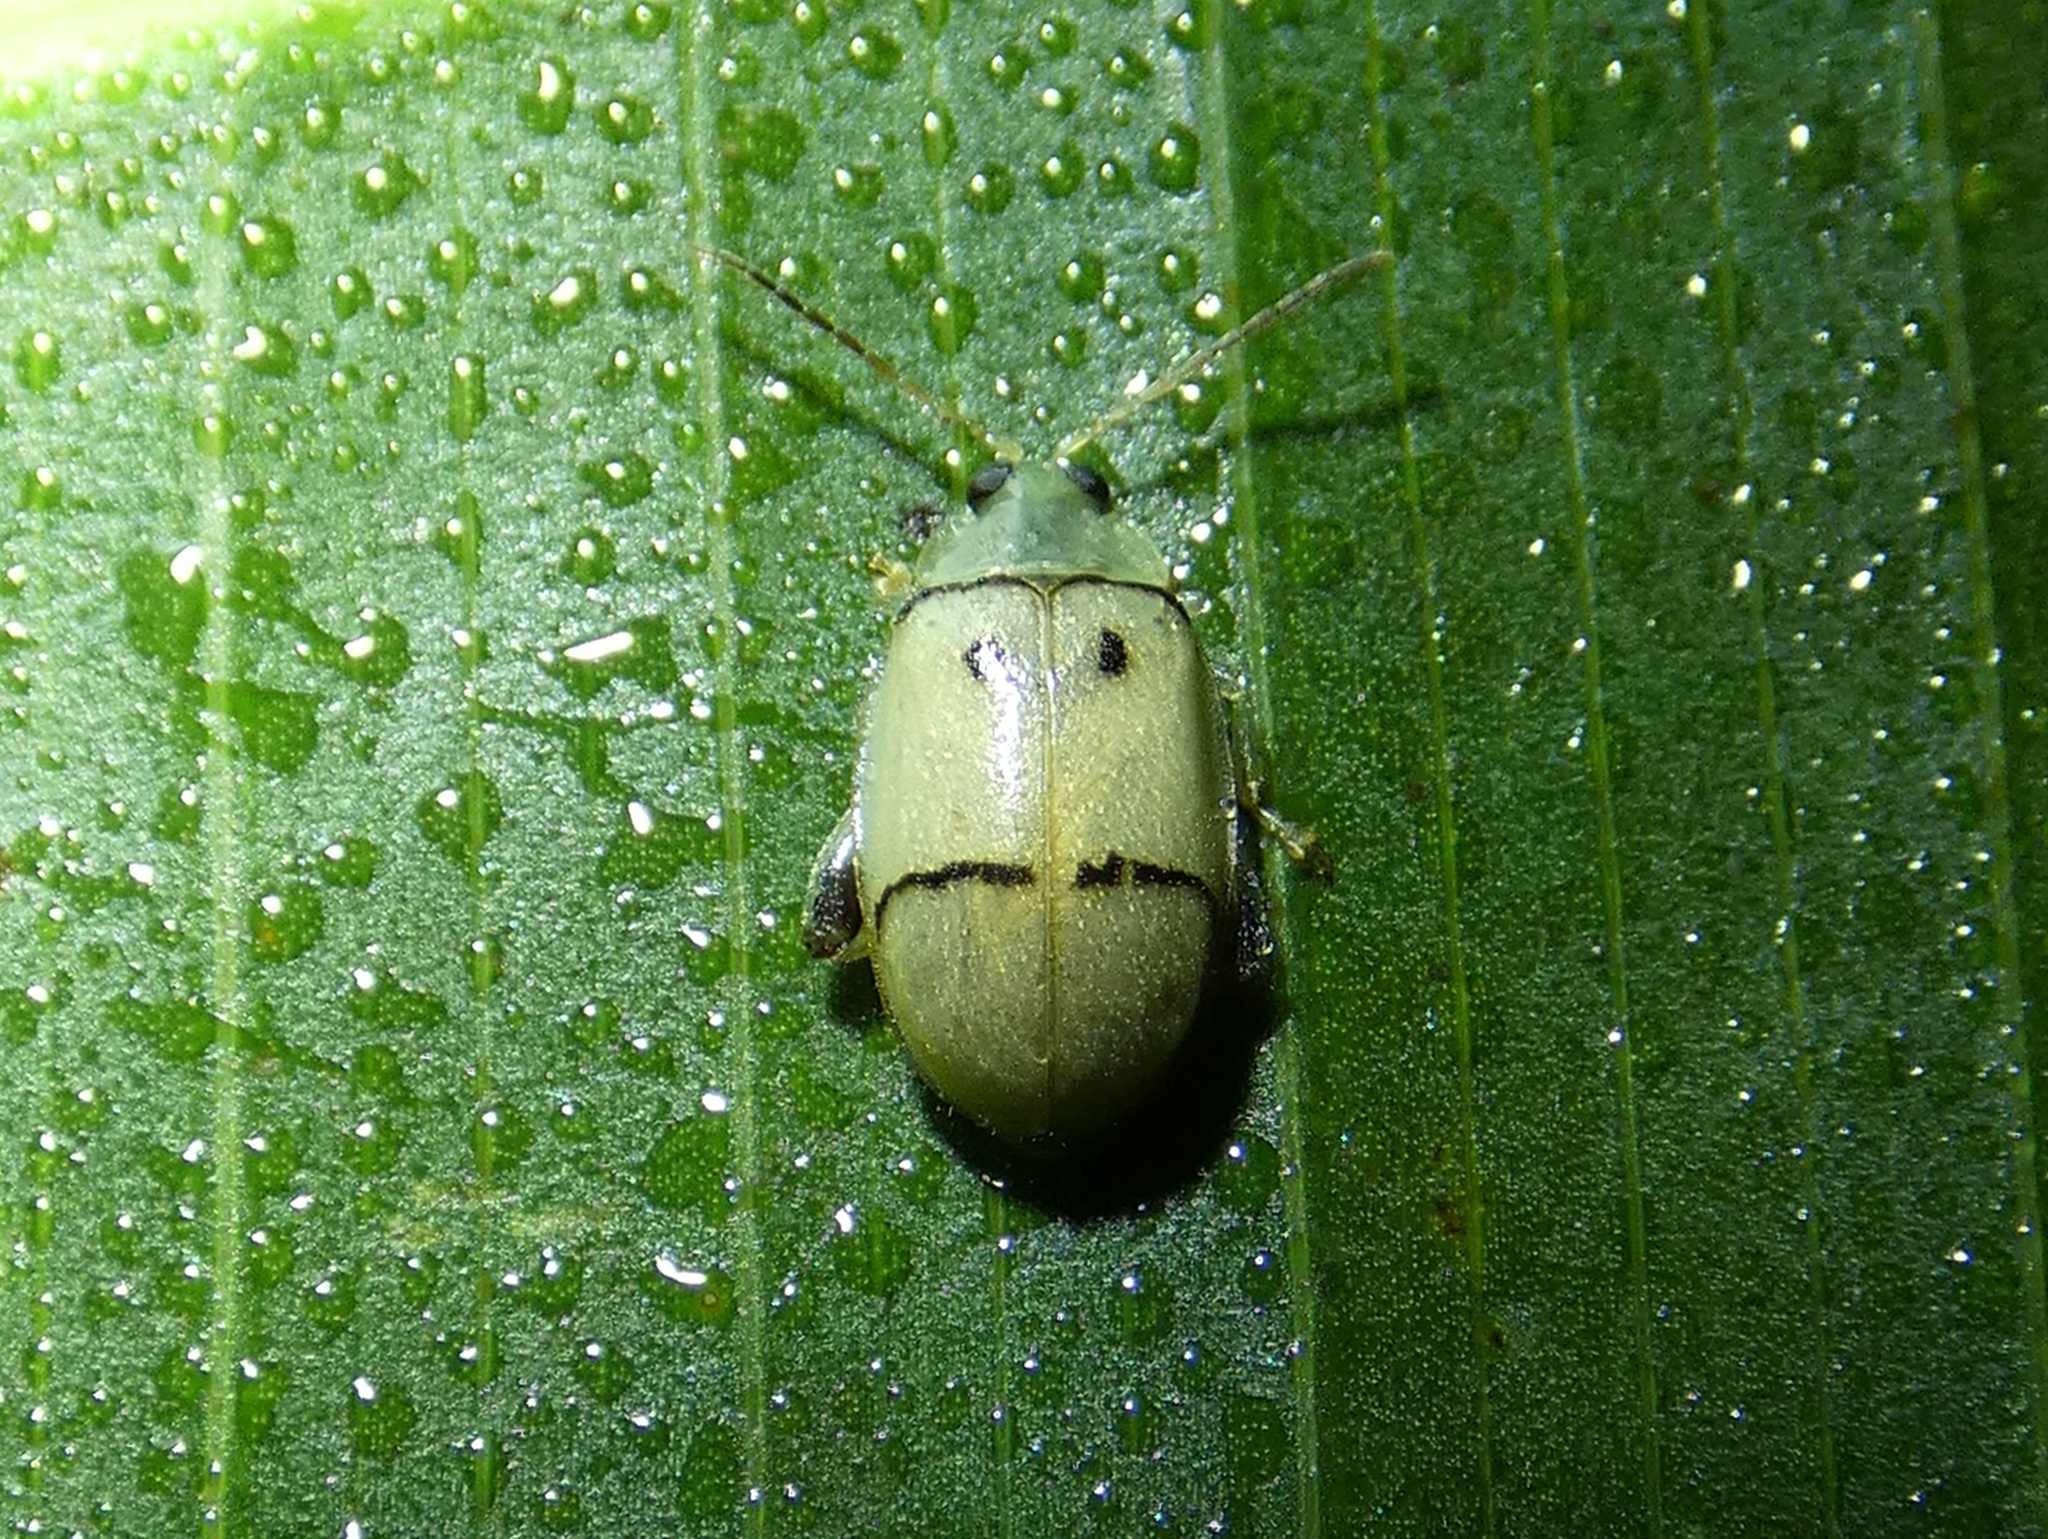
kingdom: Animalia
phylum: Arthropoda
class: Insecta
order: Coleoptera
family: Chrysomelidae
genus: Walterianella
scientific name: Walterianella
